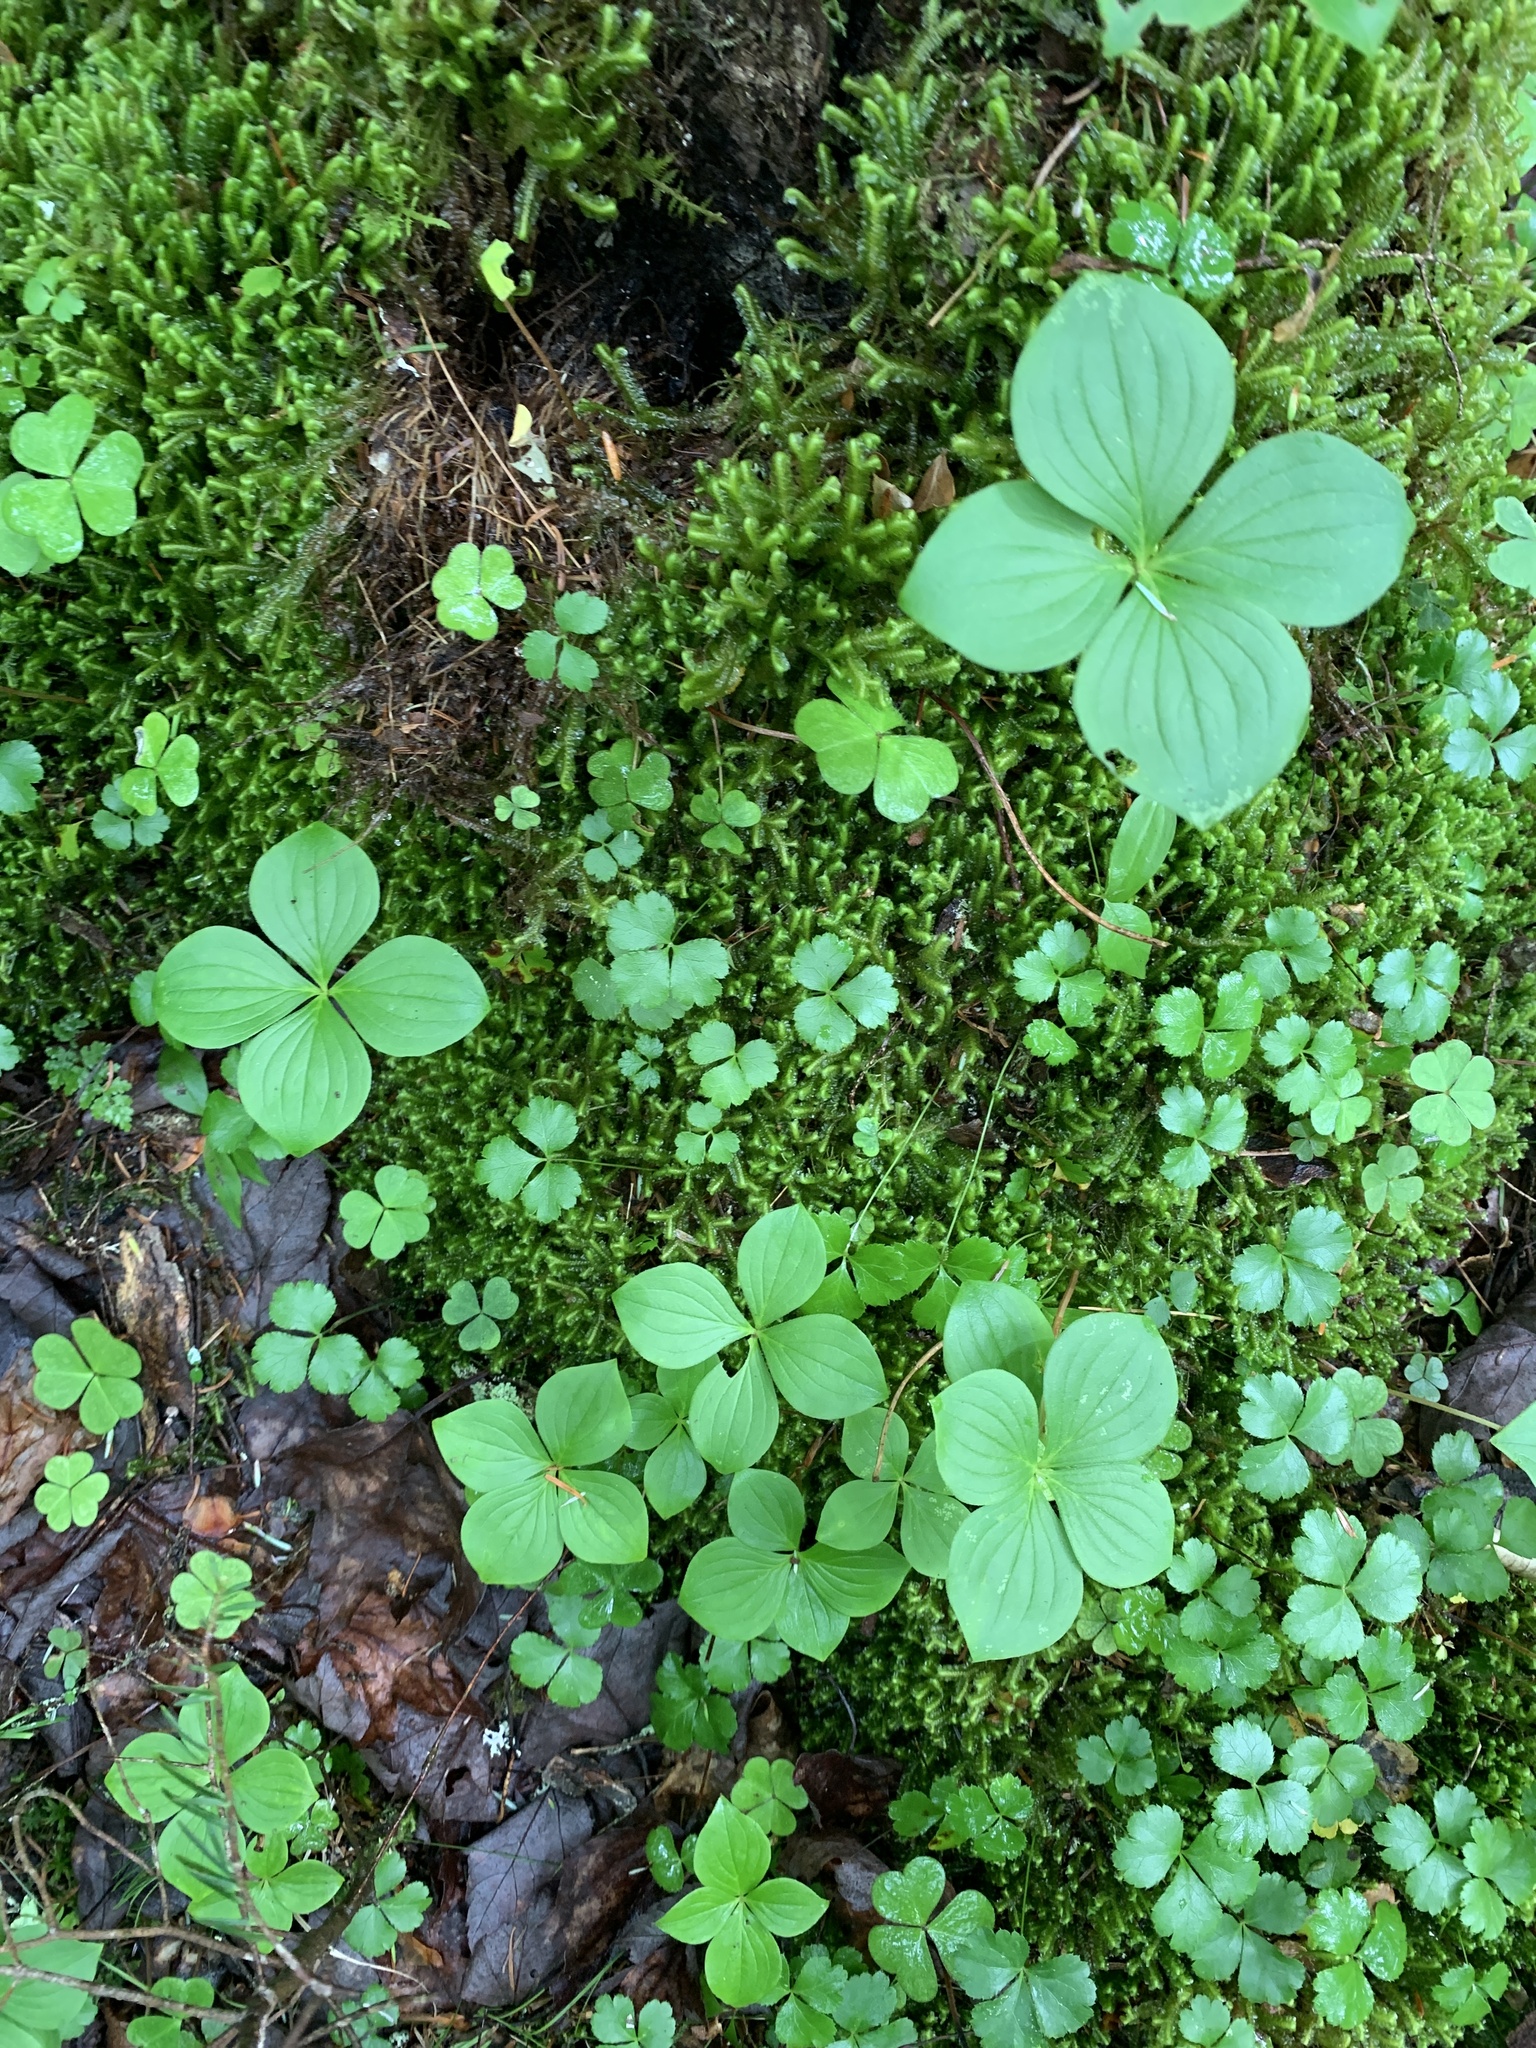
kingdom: Plantae
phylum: Tracheophyta
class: Magnoliopsida
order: Cornales
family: Cornaceae
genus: Cornus
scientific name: Cornus canadensis
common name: Creeping dogwood
